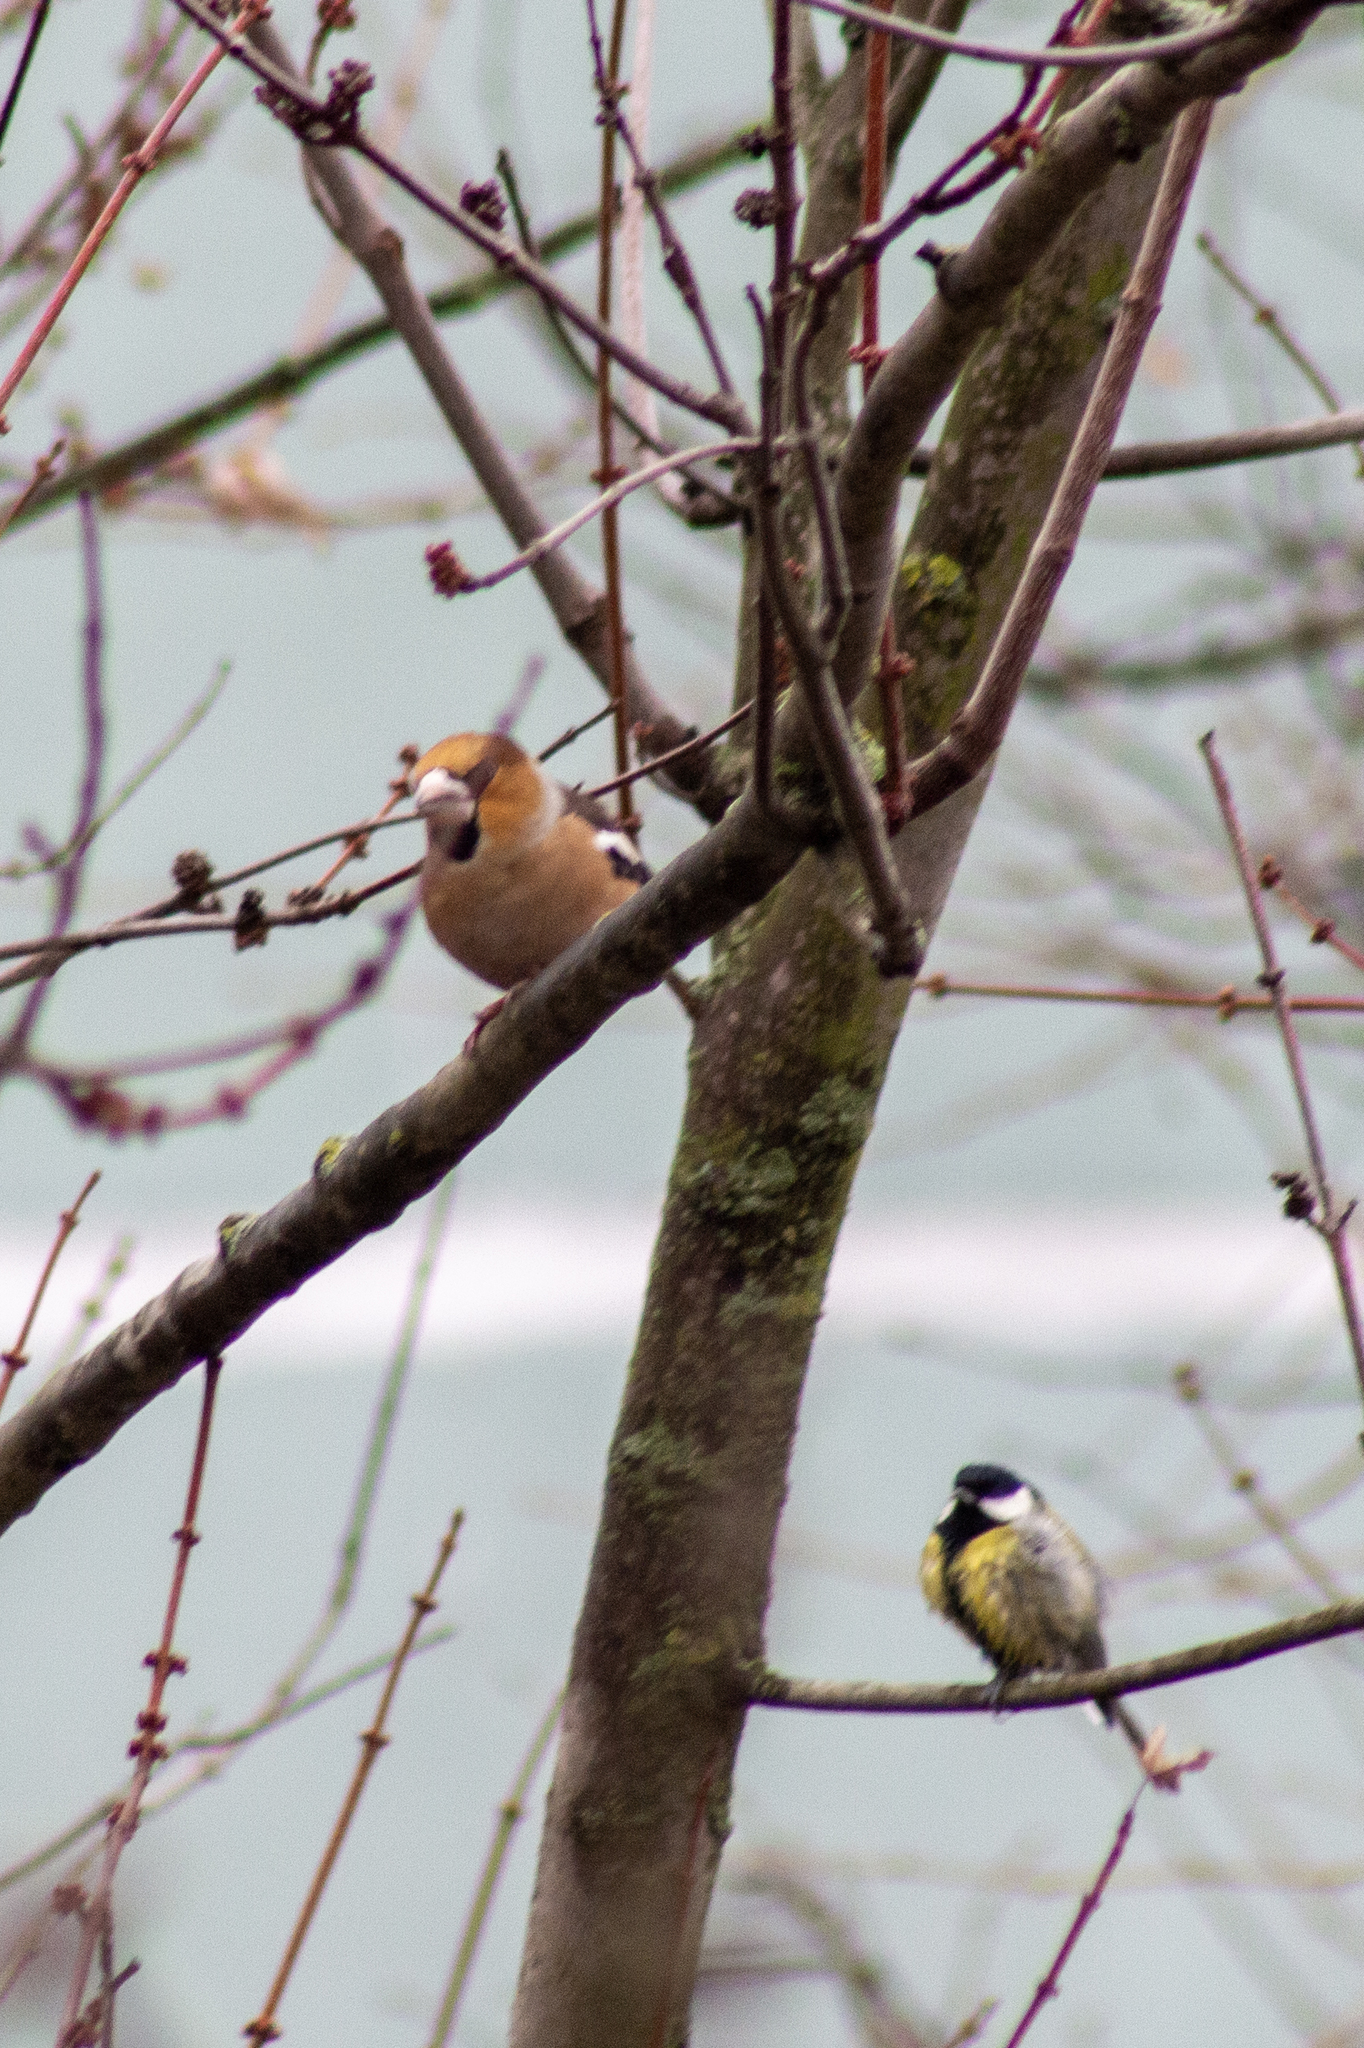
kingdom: Animalia
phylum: Chordata
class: Aves
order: Passeriformes
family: Fringillidae
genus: Coccothraustes
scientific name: Coccothraustes coccothraustes
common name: Hawfinch
